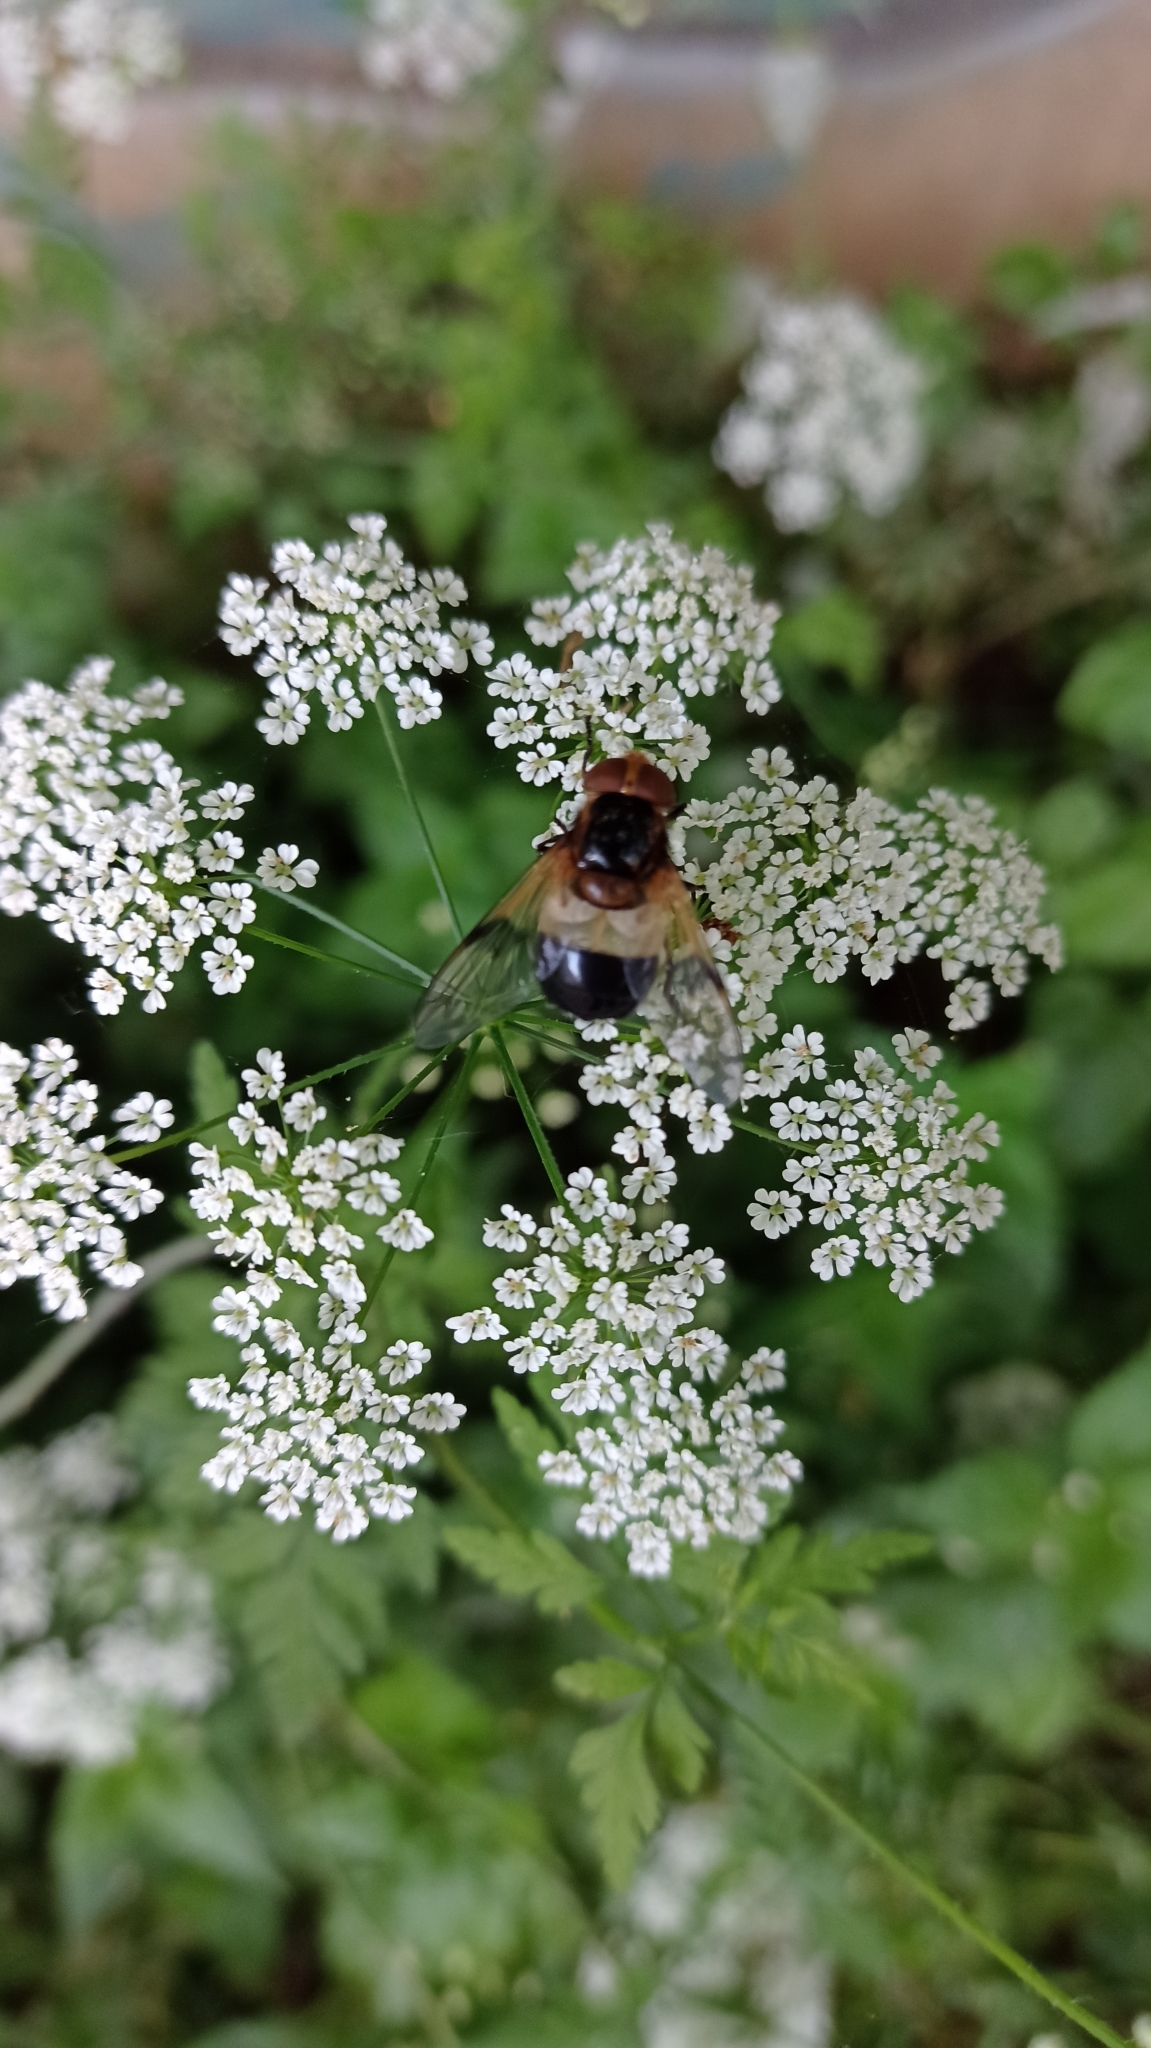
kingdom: Animalia
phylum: Arthropoda
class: Insecta
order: Diptera
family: Syrphidae
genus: Volucella
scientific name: Volucella pellucens
